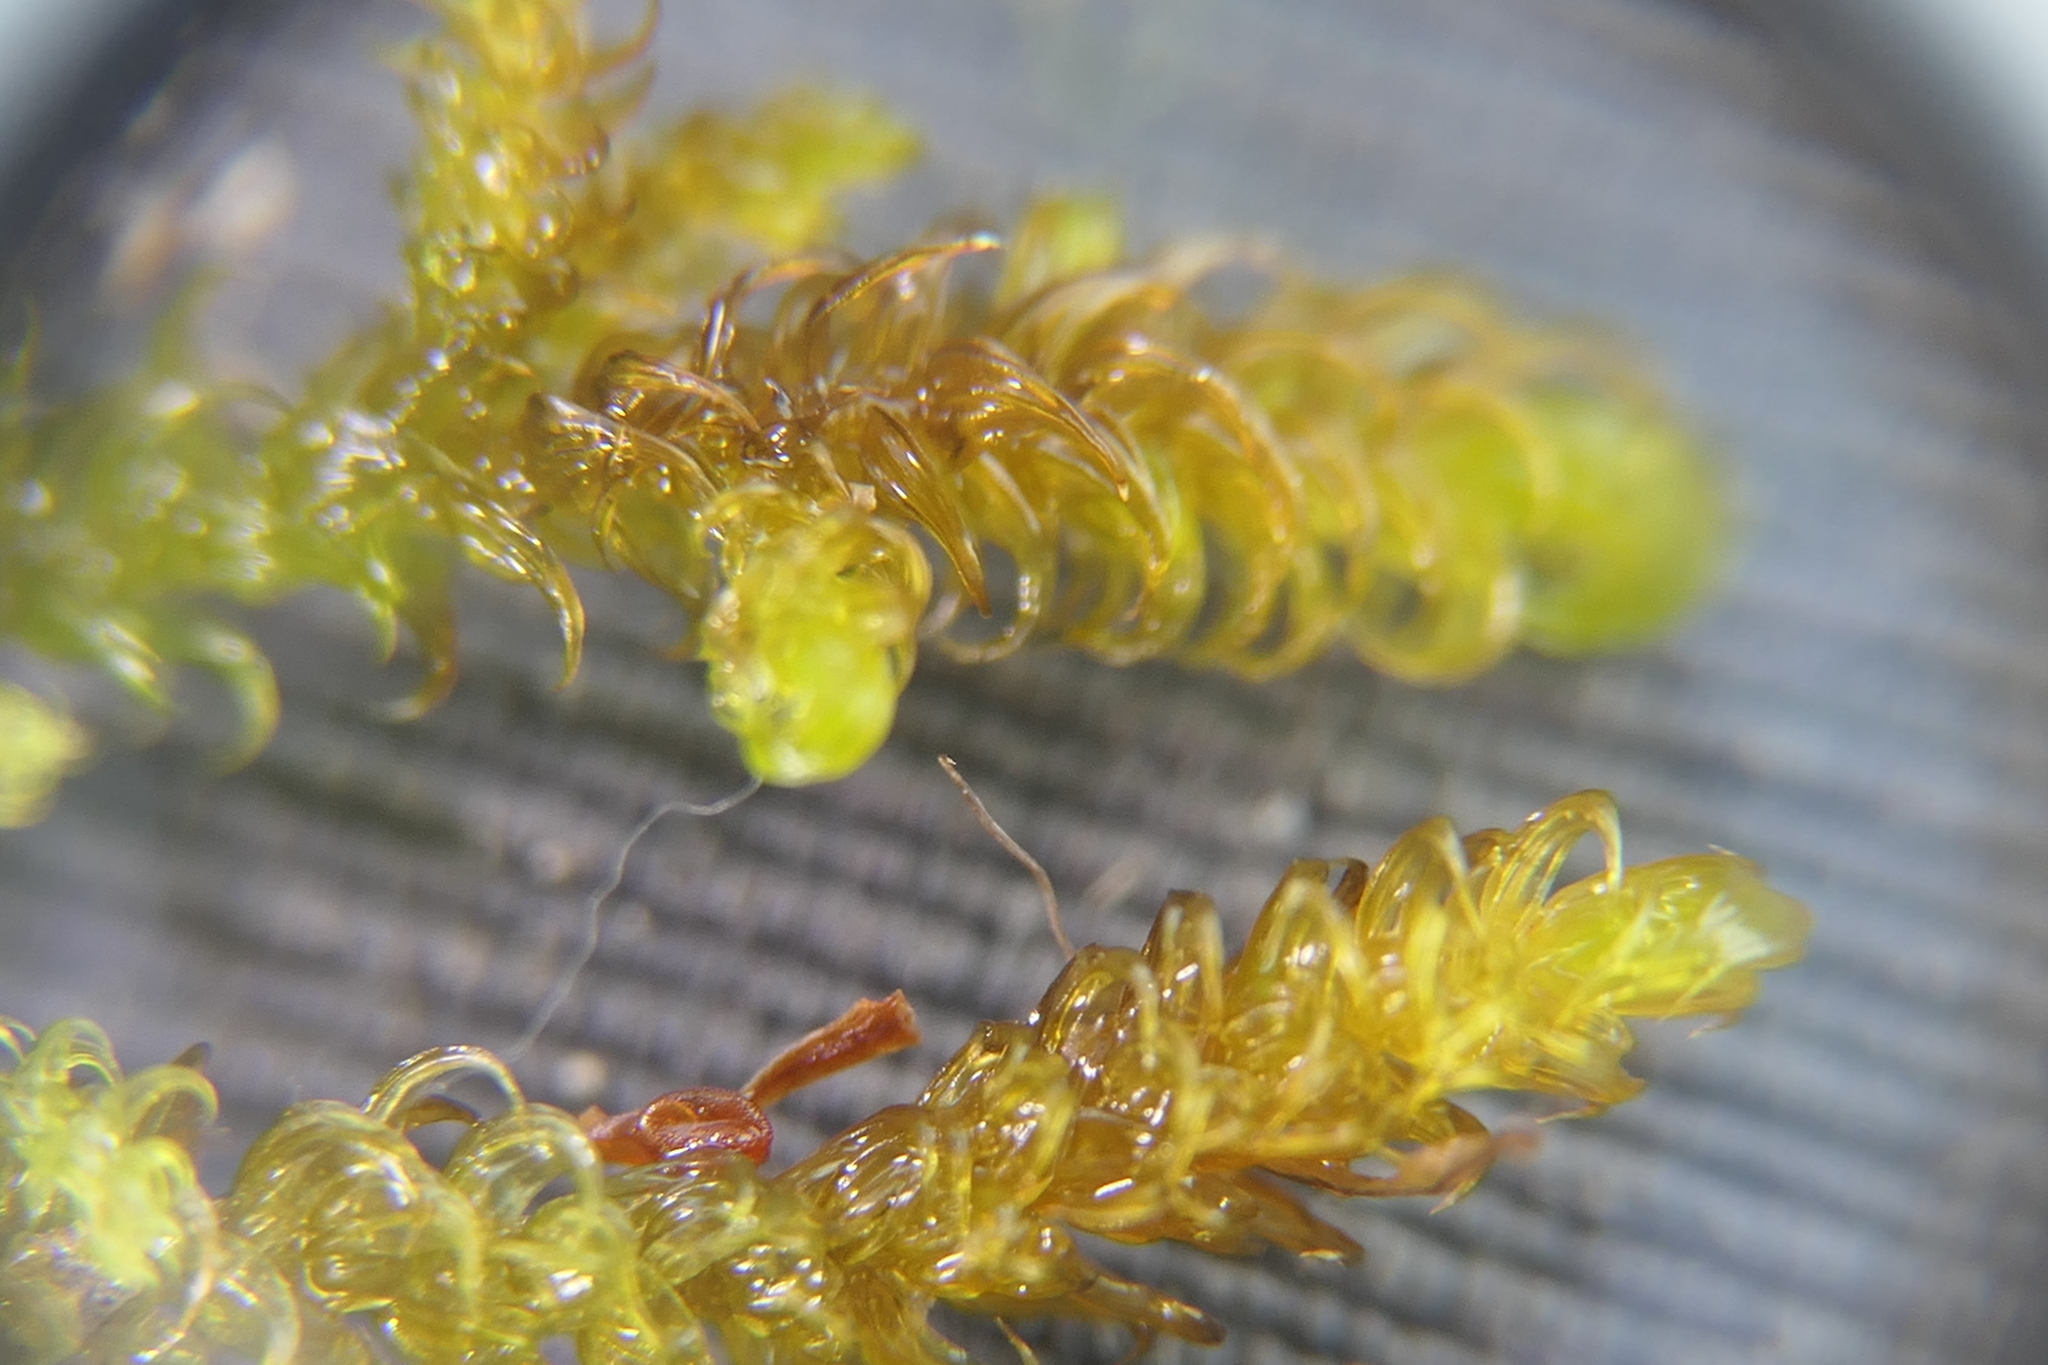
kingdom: Plantae
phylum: Bryophyta
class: Bryopsida
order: Hypnales
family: Amblystegiaceae
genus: Palustriella
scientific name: Palustriella falcata
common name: Curled hook-moss
